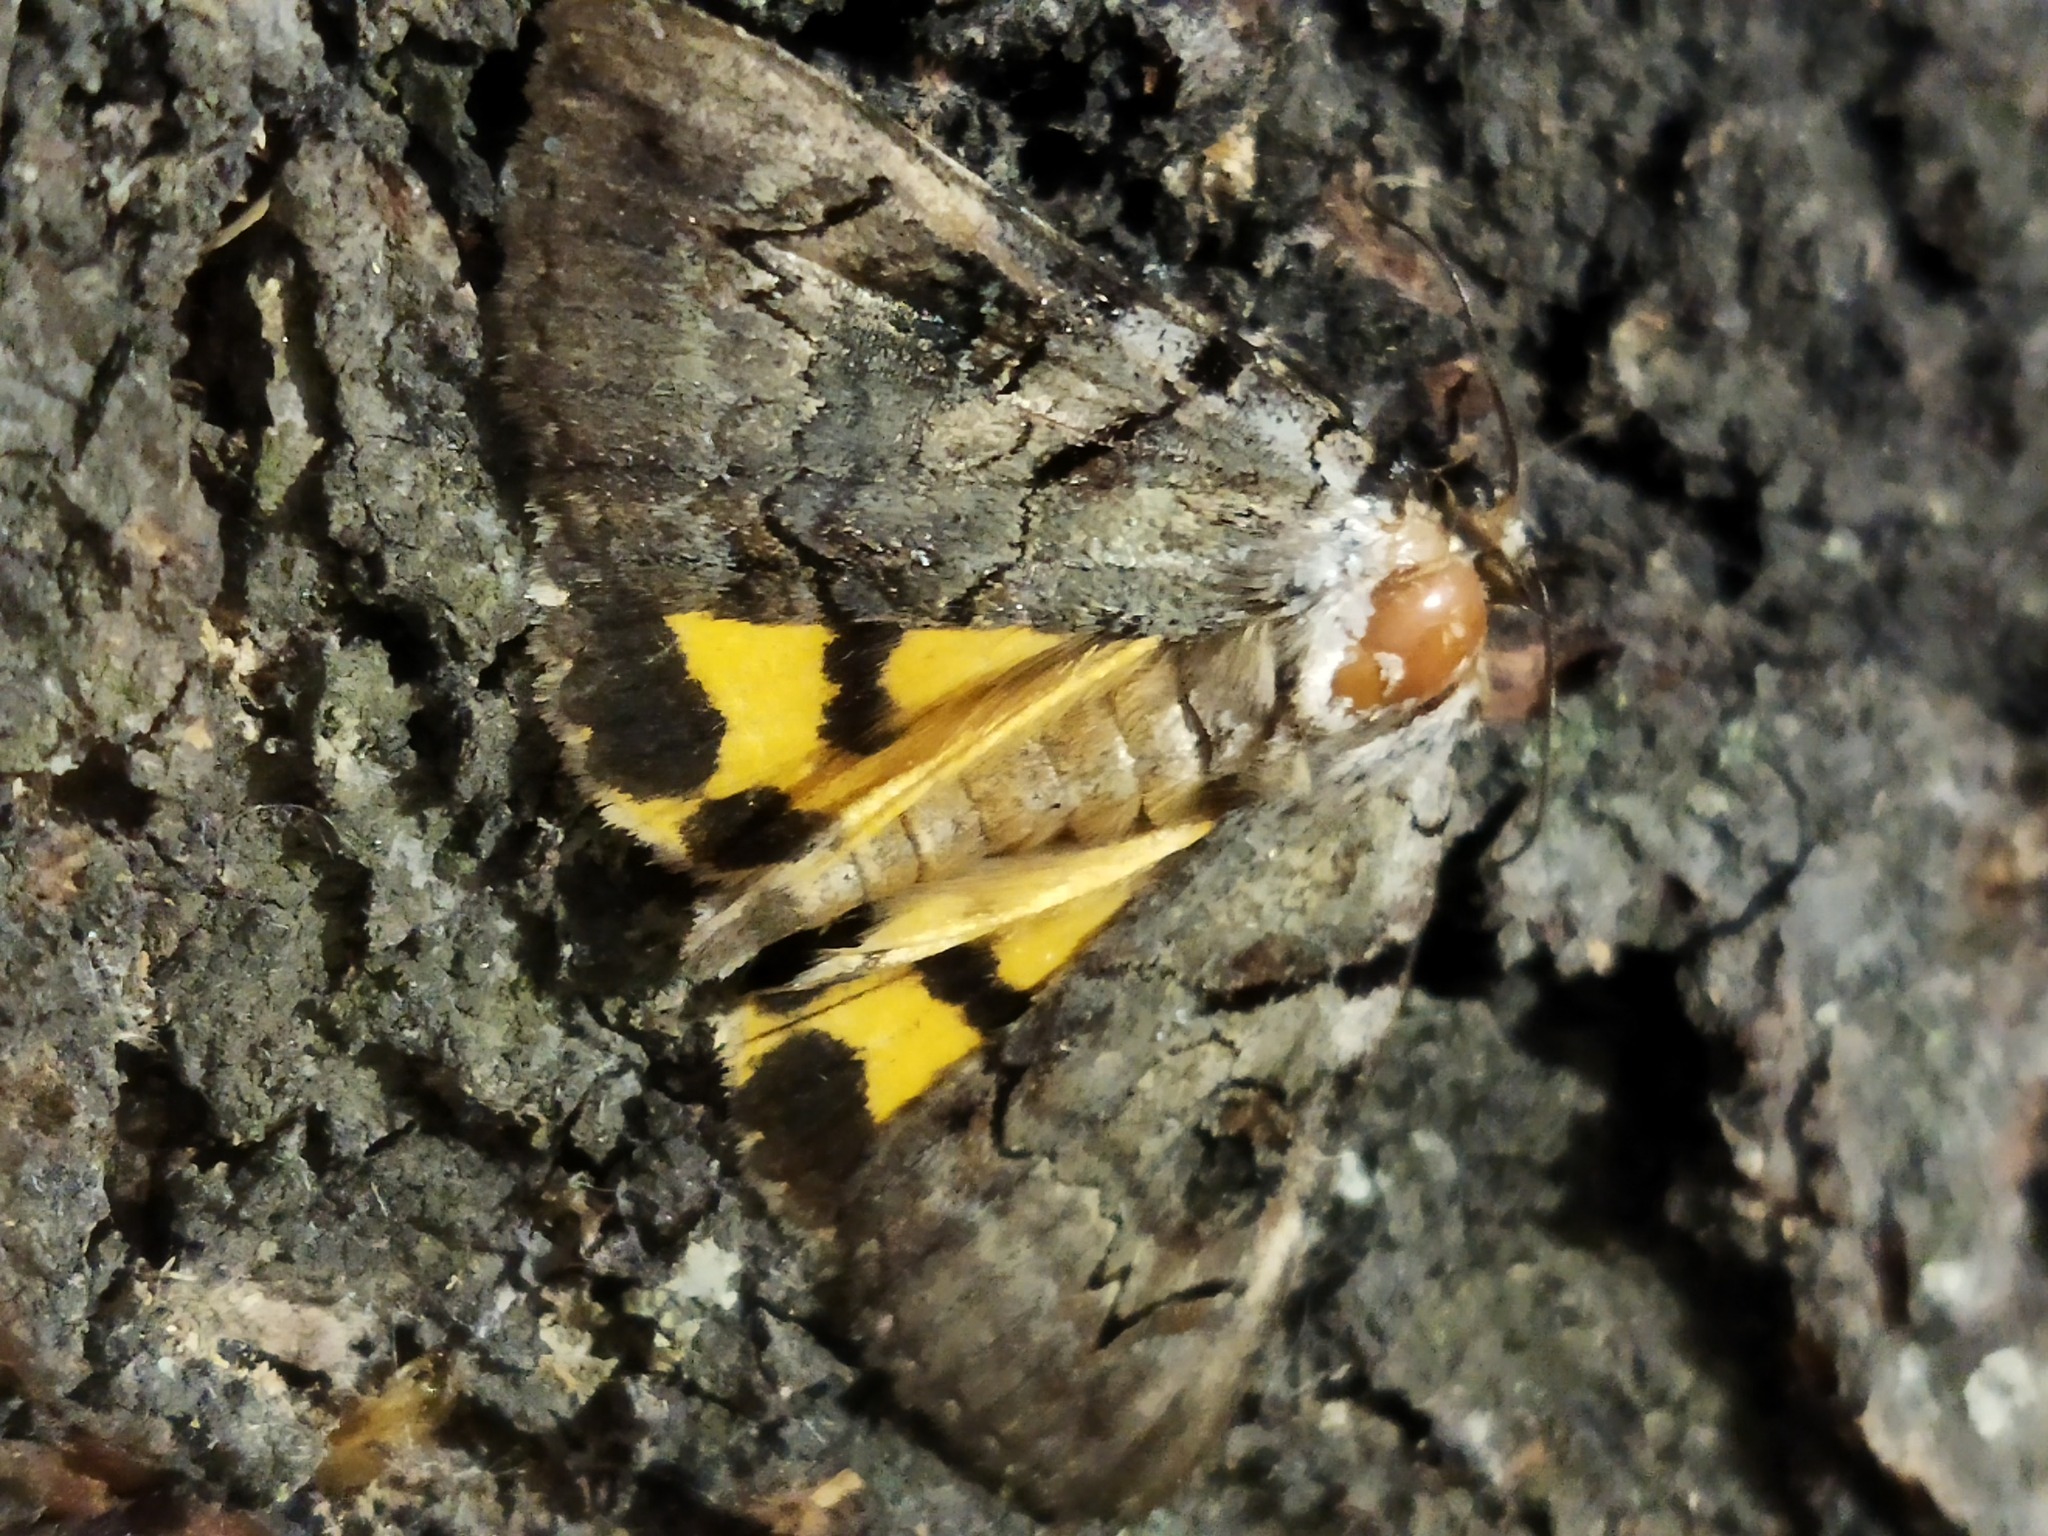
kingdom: Animalia
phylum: Arthropoda
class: Insecta
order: Lepidoptera
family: Erebidae
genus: Catocala
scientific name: Catocala hymenaea
